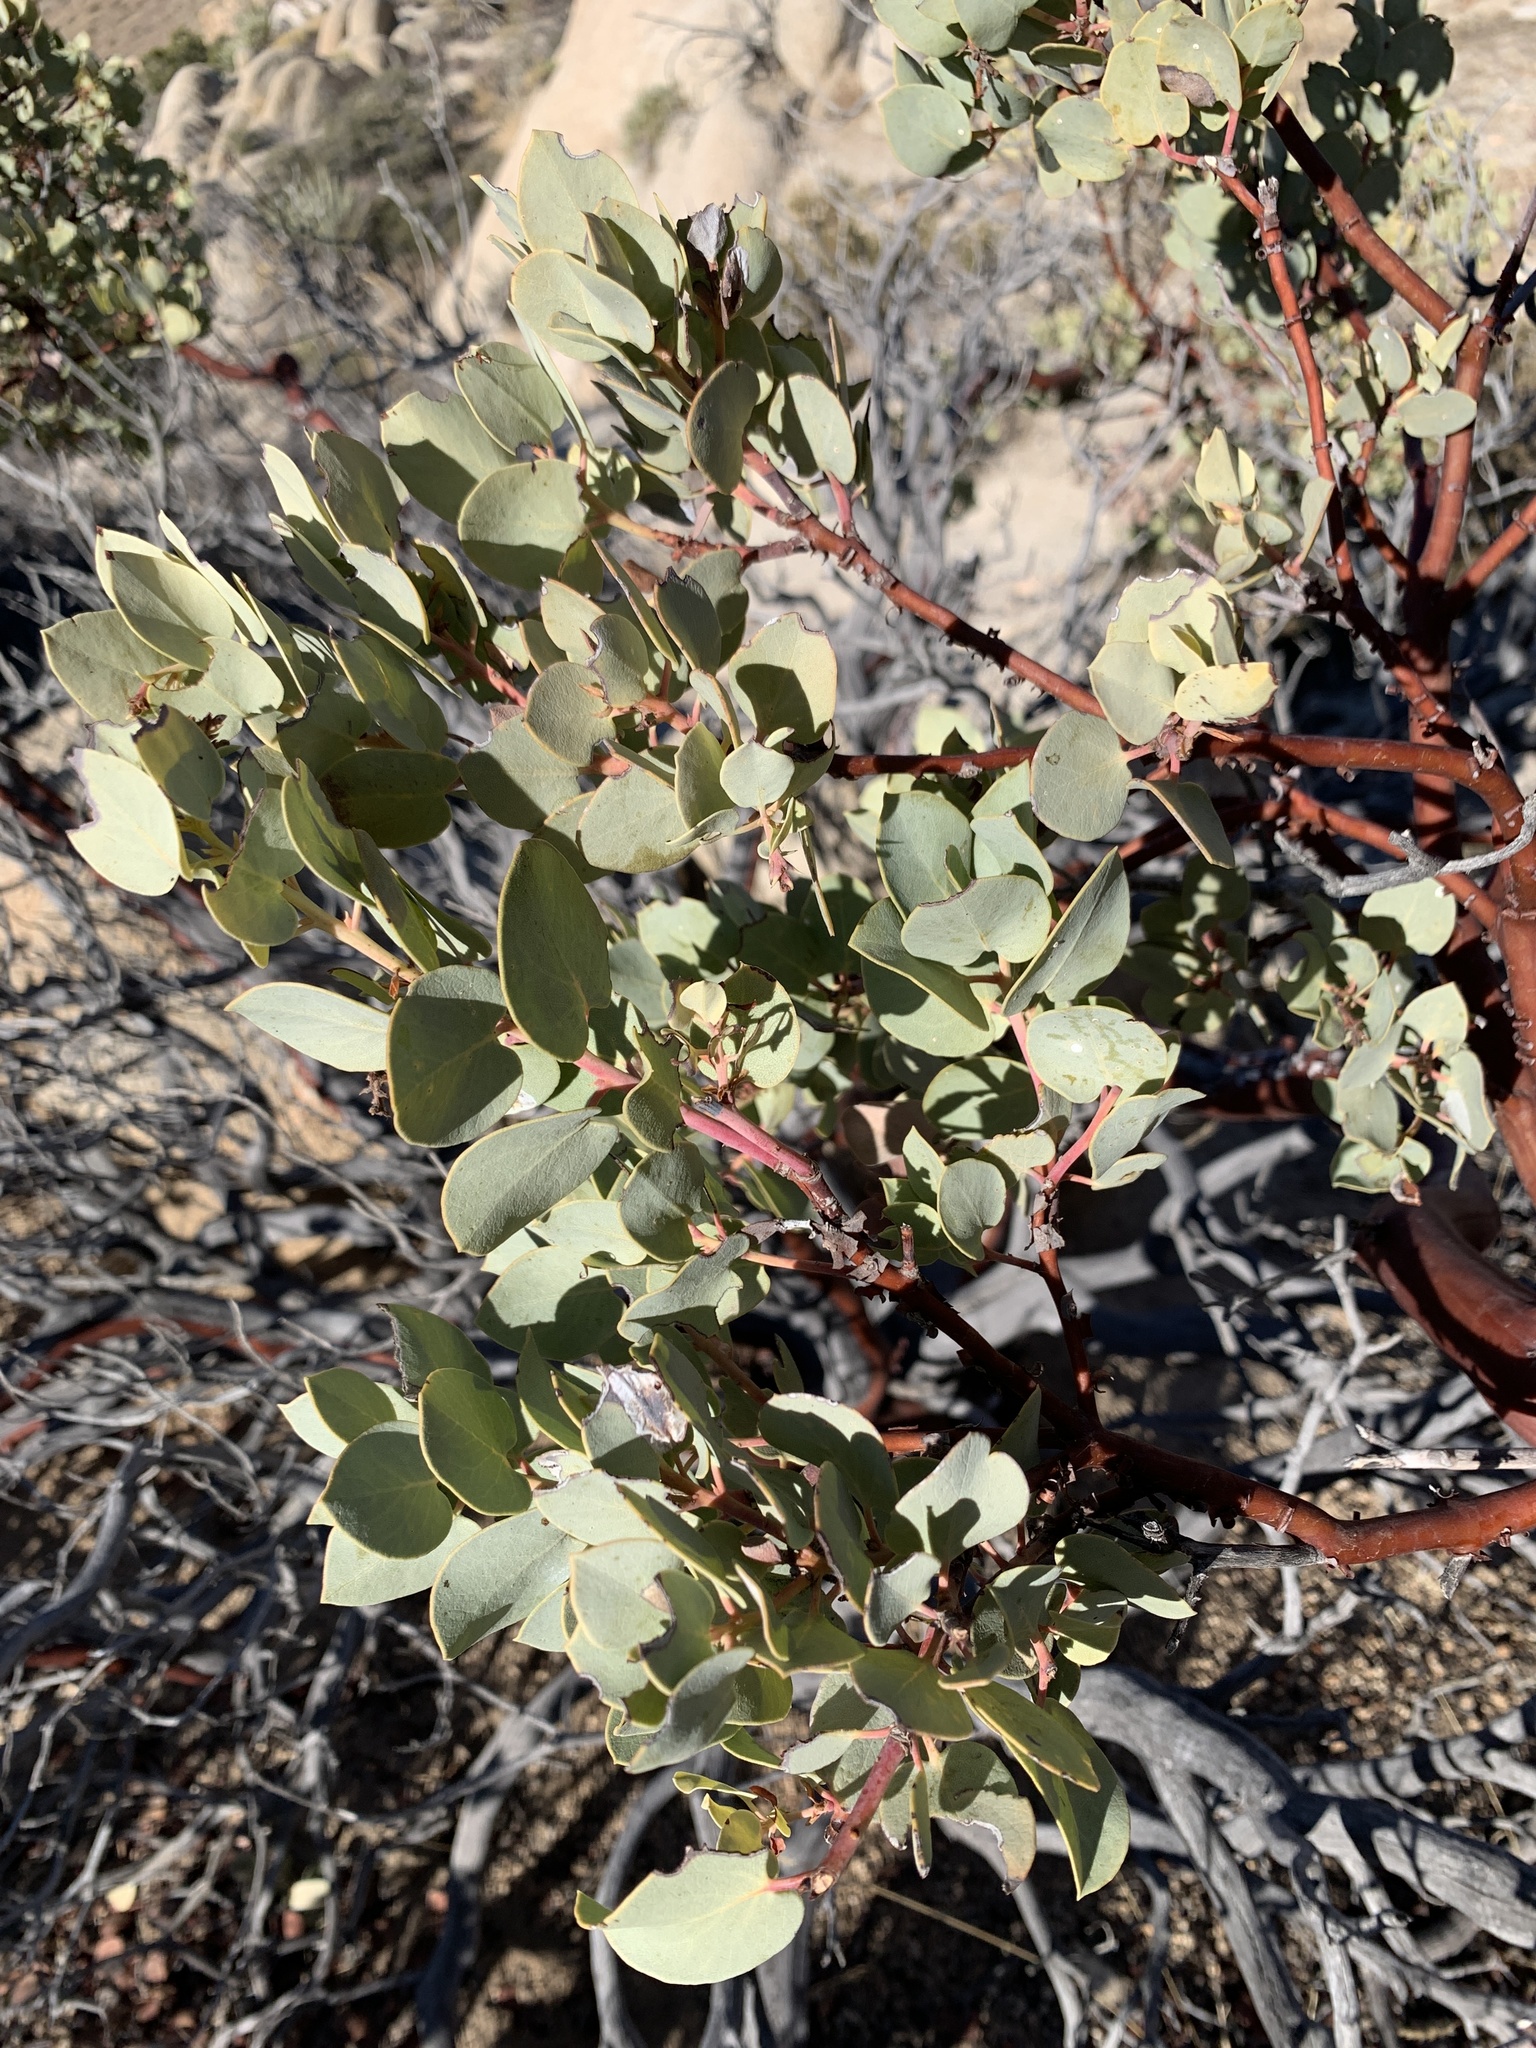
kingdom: Plantae
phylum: Tracheophyta
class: Magnoliopsida
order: Ericales
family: Ericaceae
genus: Arctostaphylos
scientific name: Arctostaphylos glauca
